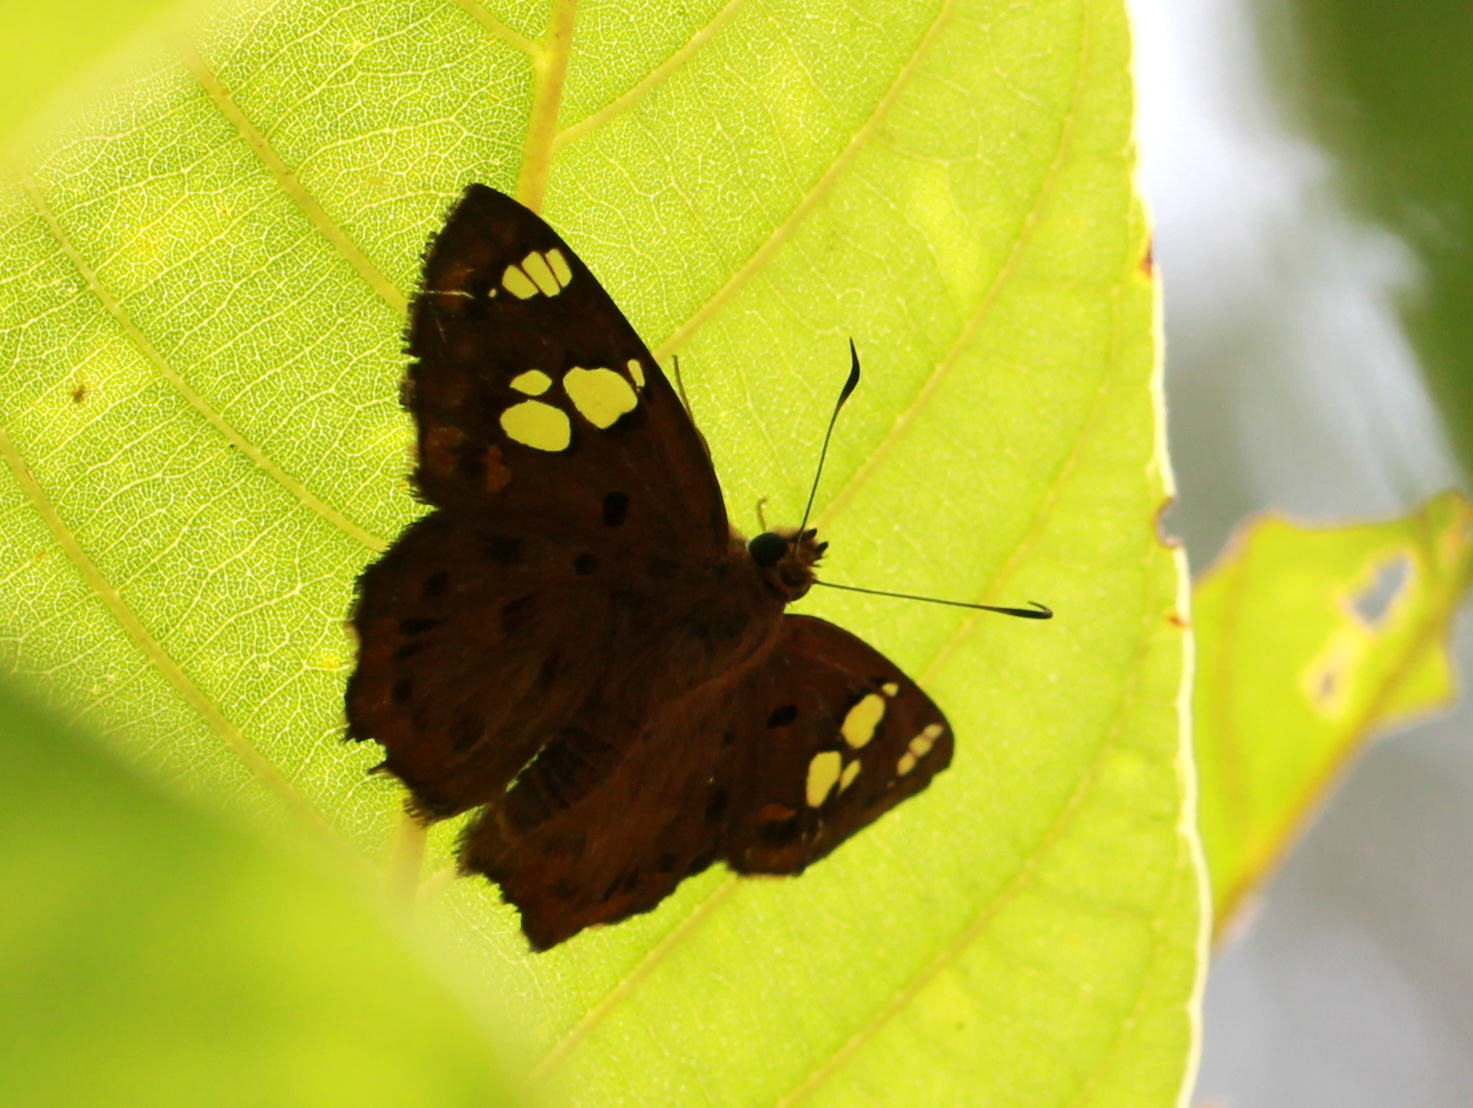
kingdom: Animalia
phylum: Arthropoda
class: Insecta
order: Lepidoptera
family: Hesperiidae
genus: Coladenia
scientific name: Coladenia
